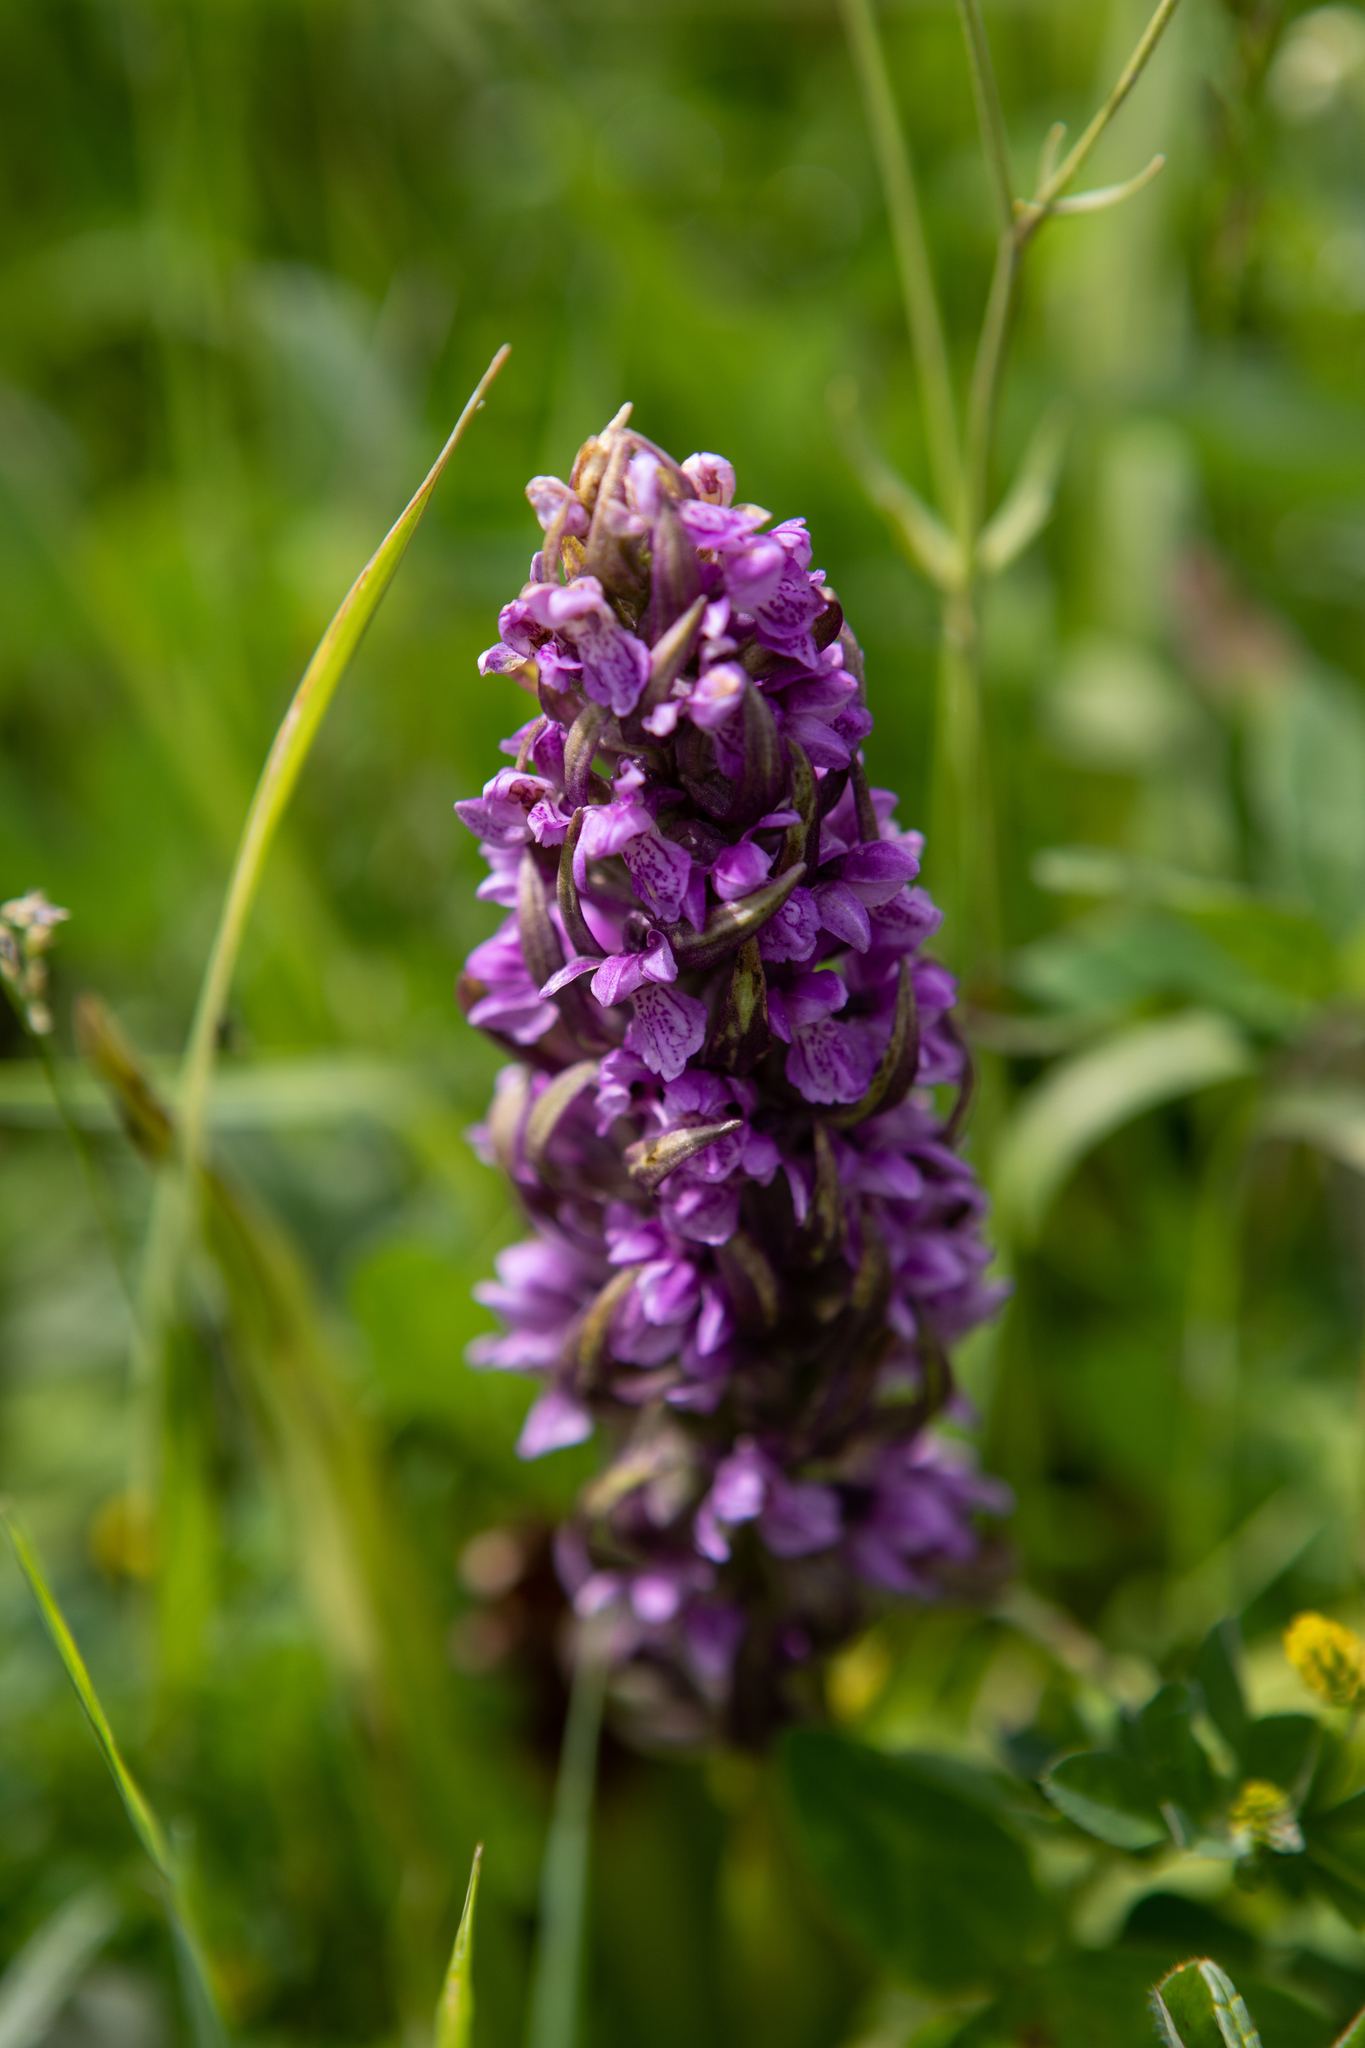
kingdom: Plantae
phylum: Tracheophyta
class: Liliopsida
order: Asparagales
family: Orchidaceae
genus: Dactylorhiza
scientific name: Dactylorhiza incarnata
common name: Early marsh-orchid
